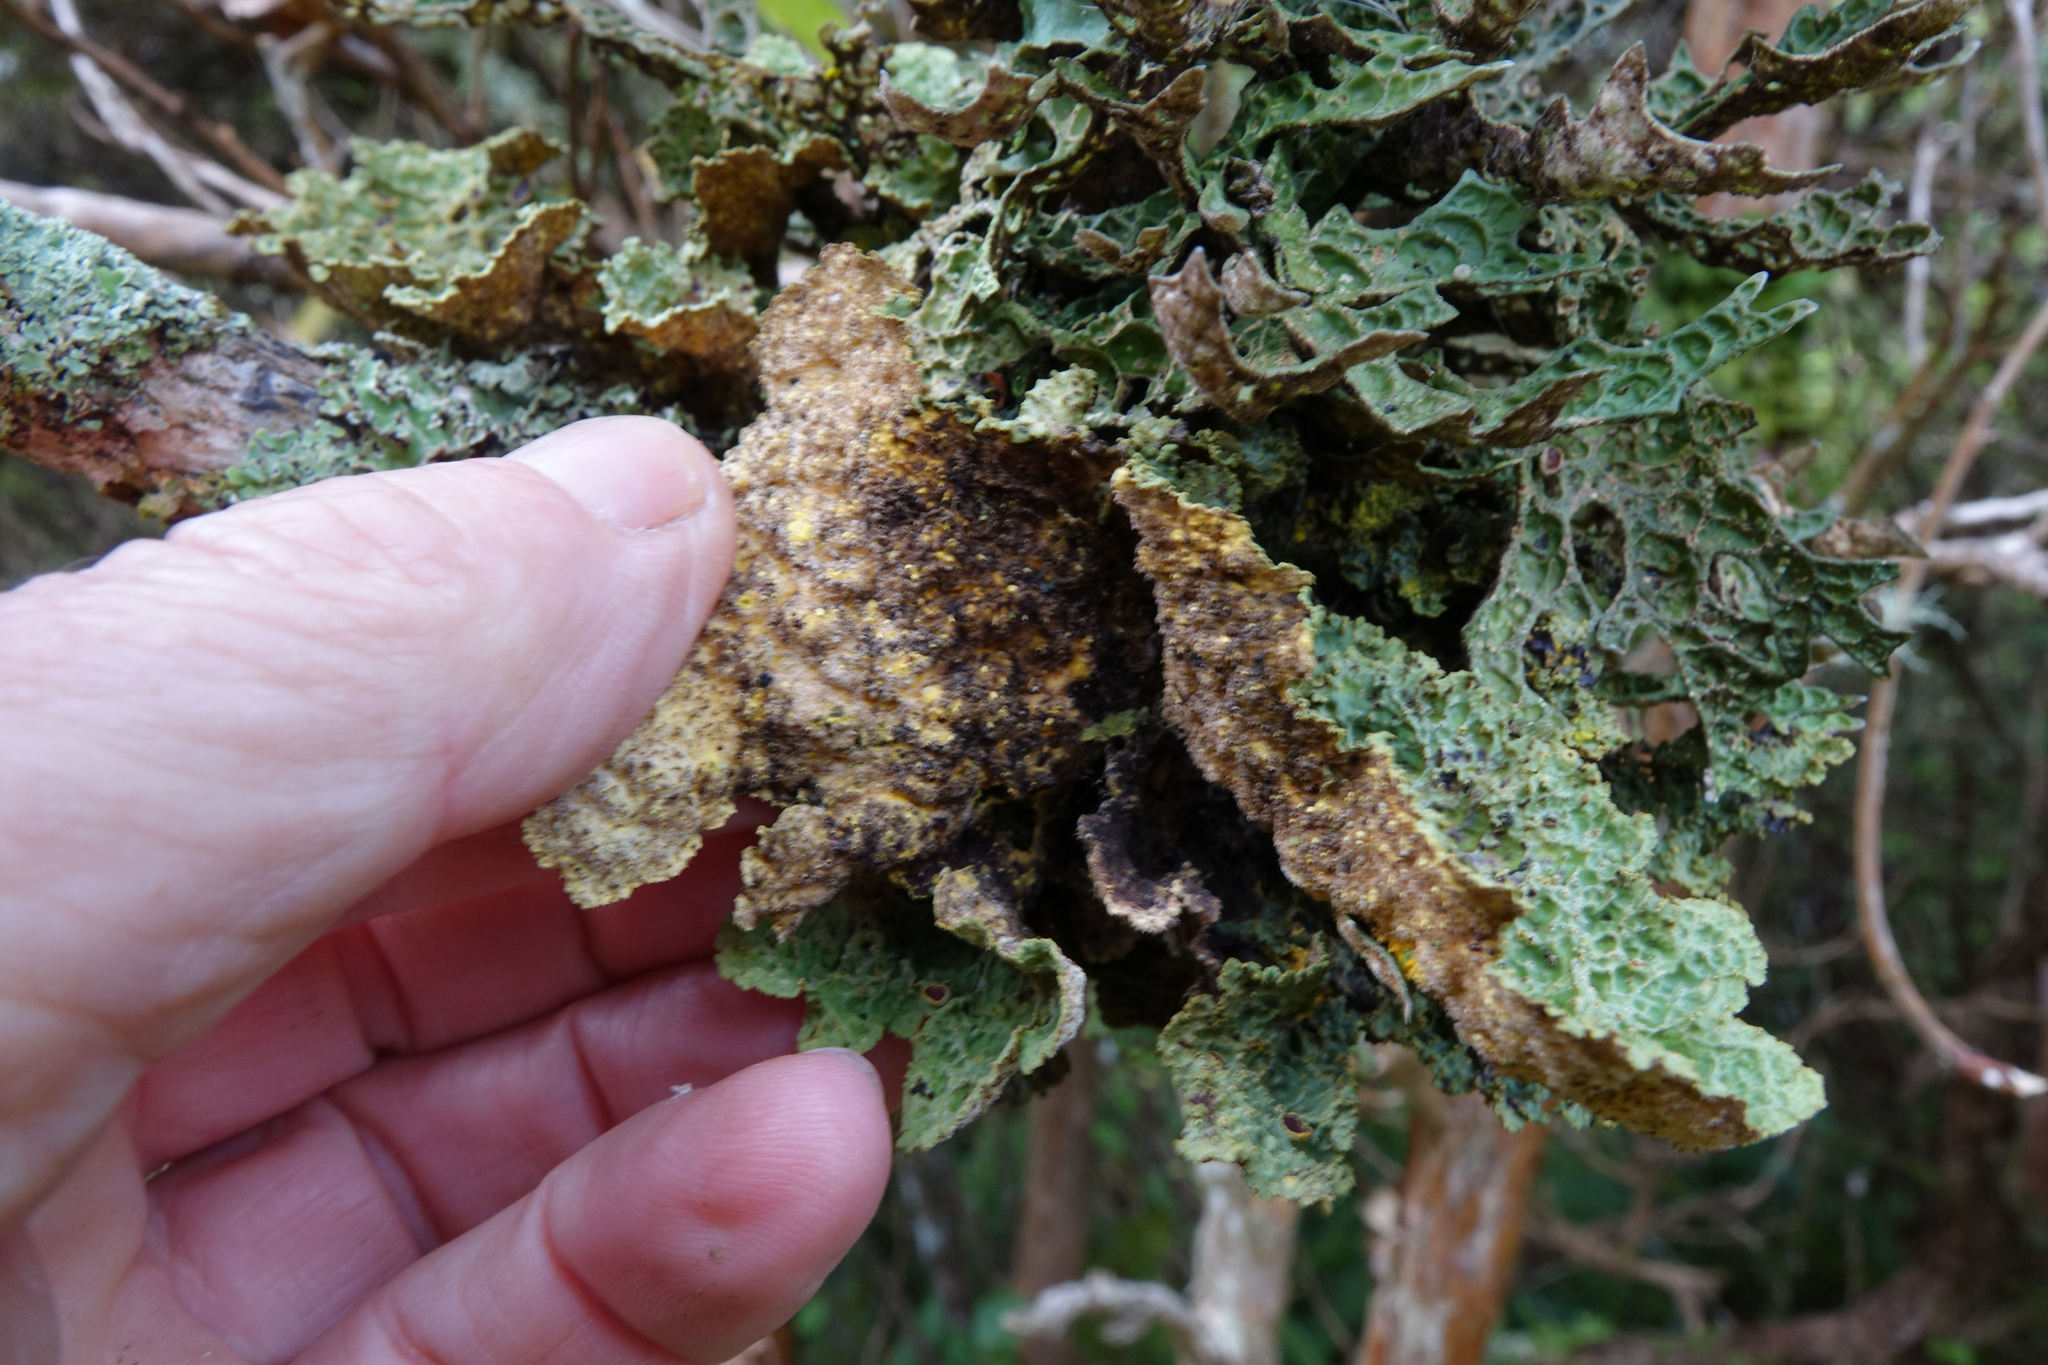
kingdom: Fungi
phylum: Ascomycota
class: Lecanoromycetes
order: Peltigerales
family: Lobariaceae
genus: Yarrumia
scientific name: Yarrumia coronata
